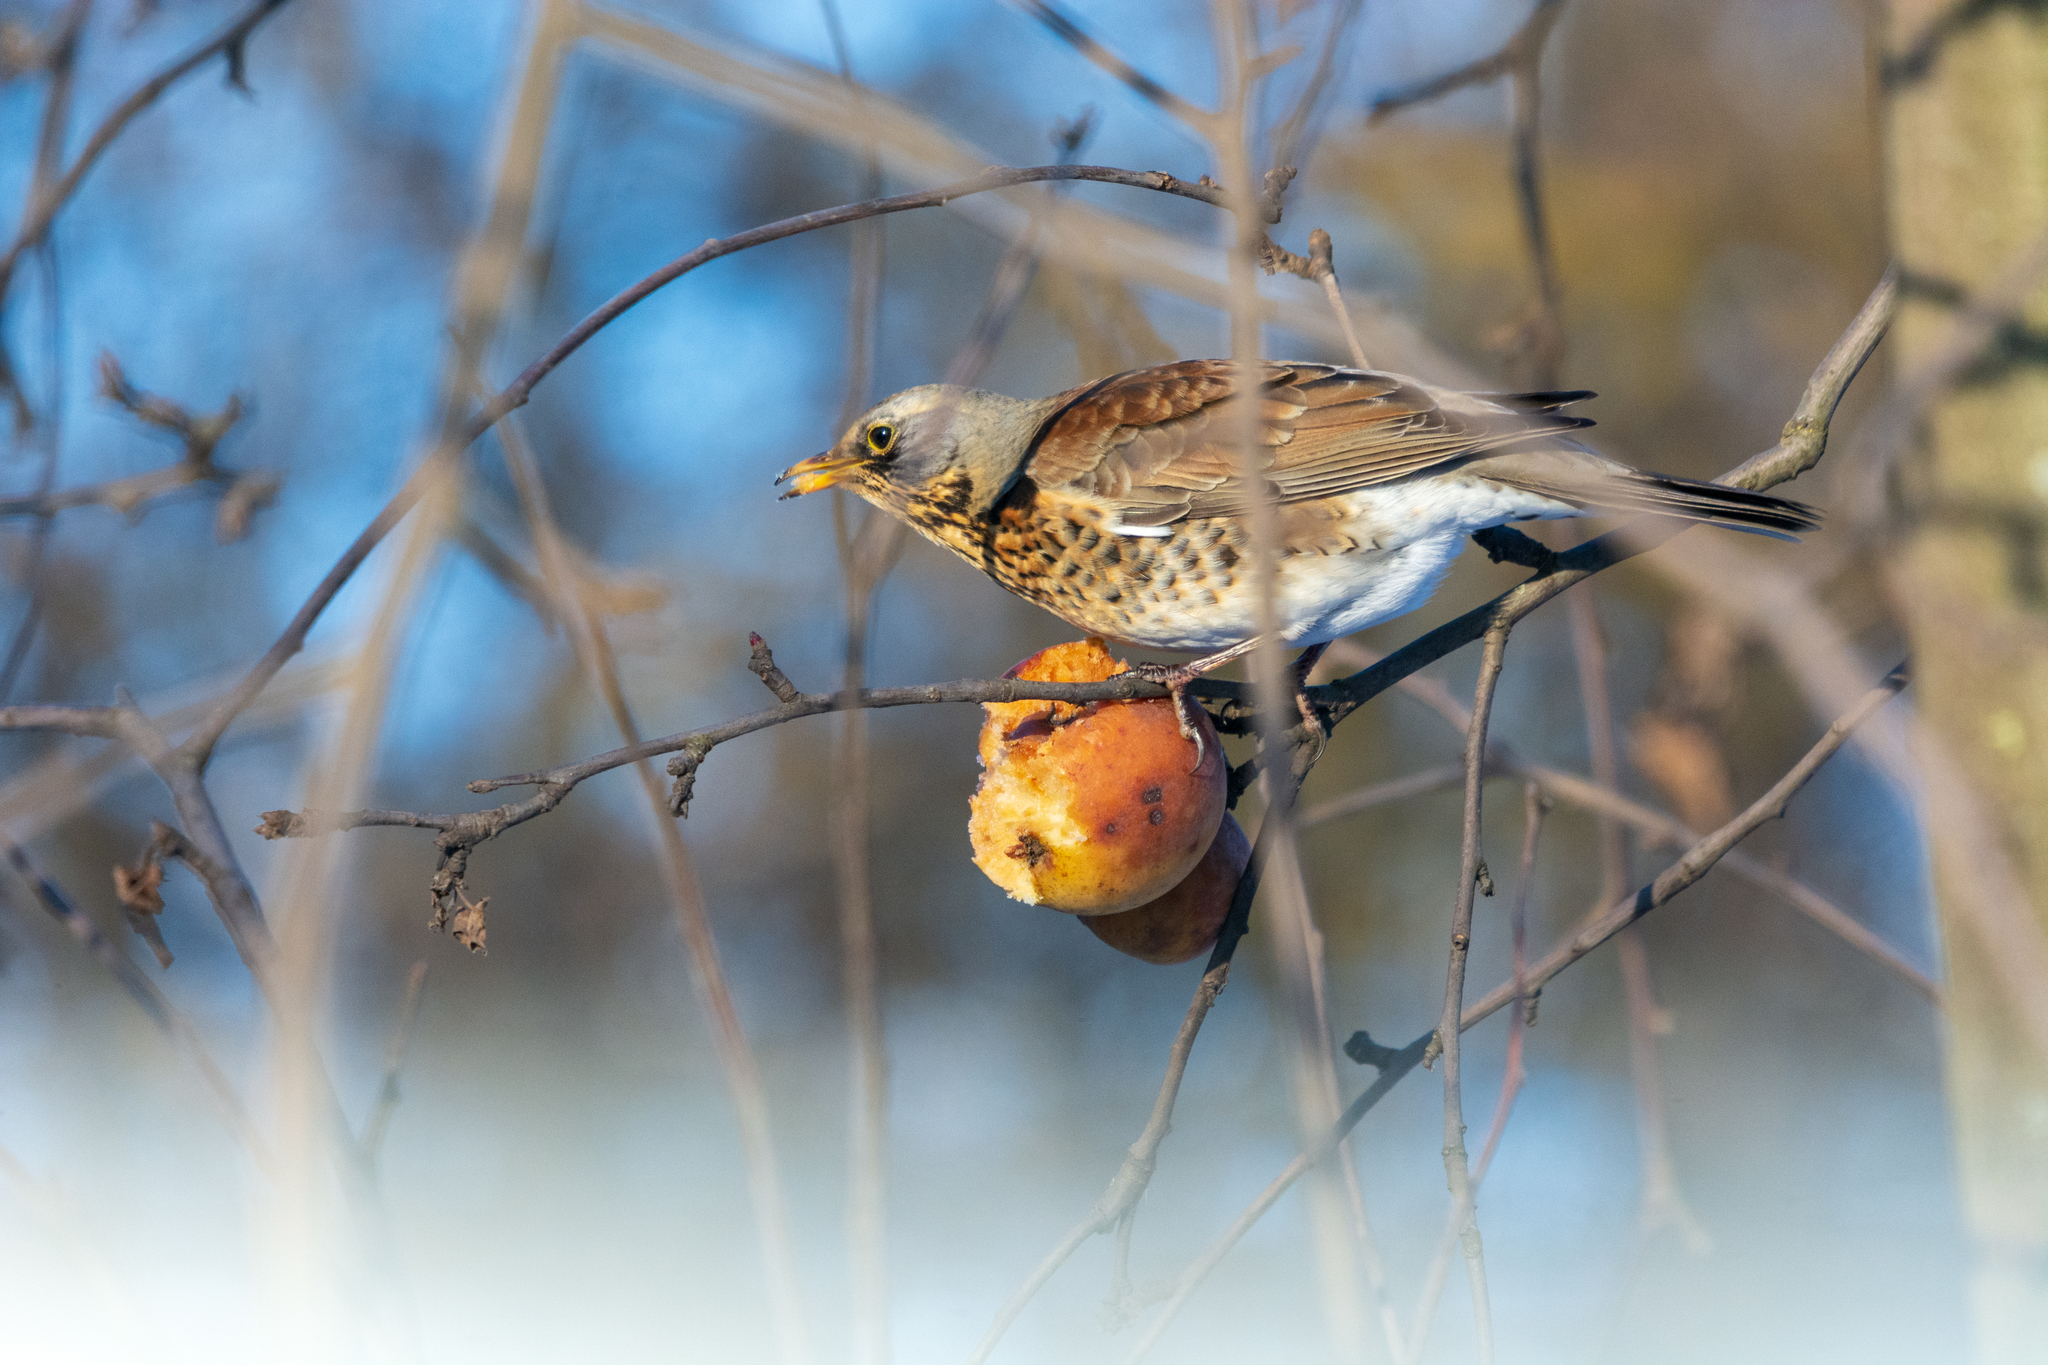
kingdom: Animalia
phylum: Chordata
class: Aves
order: Passeriformes
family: Turdidae
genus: Turdus
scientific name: Turdus pilaris
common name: Fieldfare
